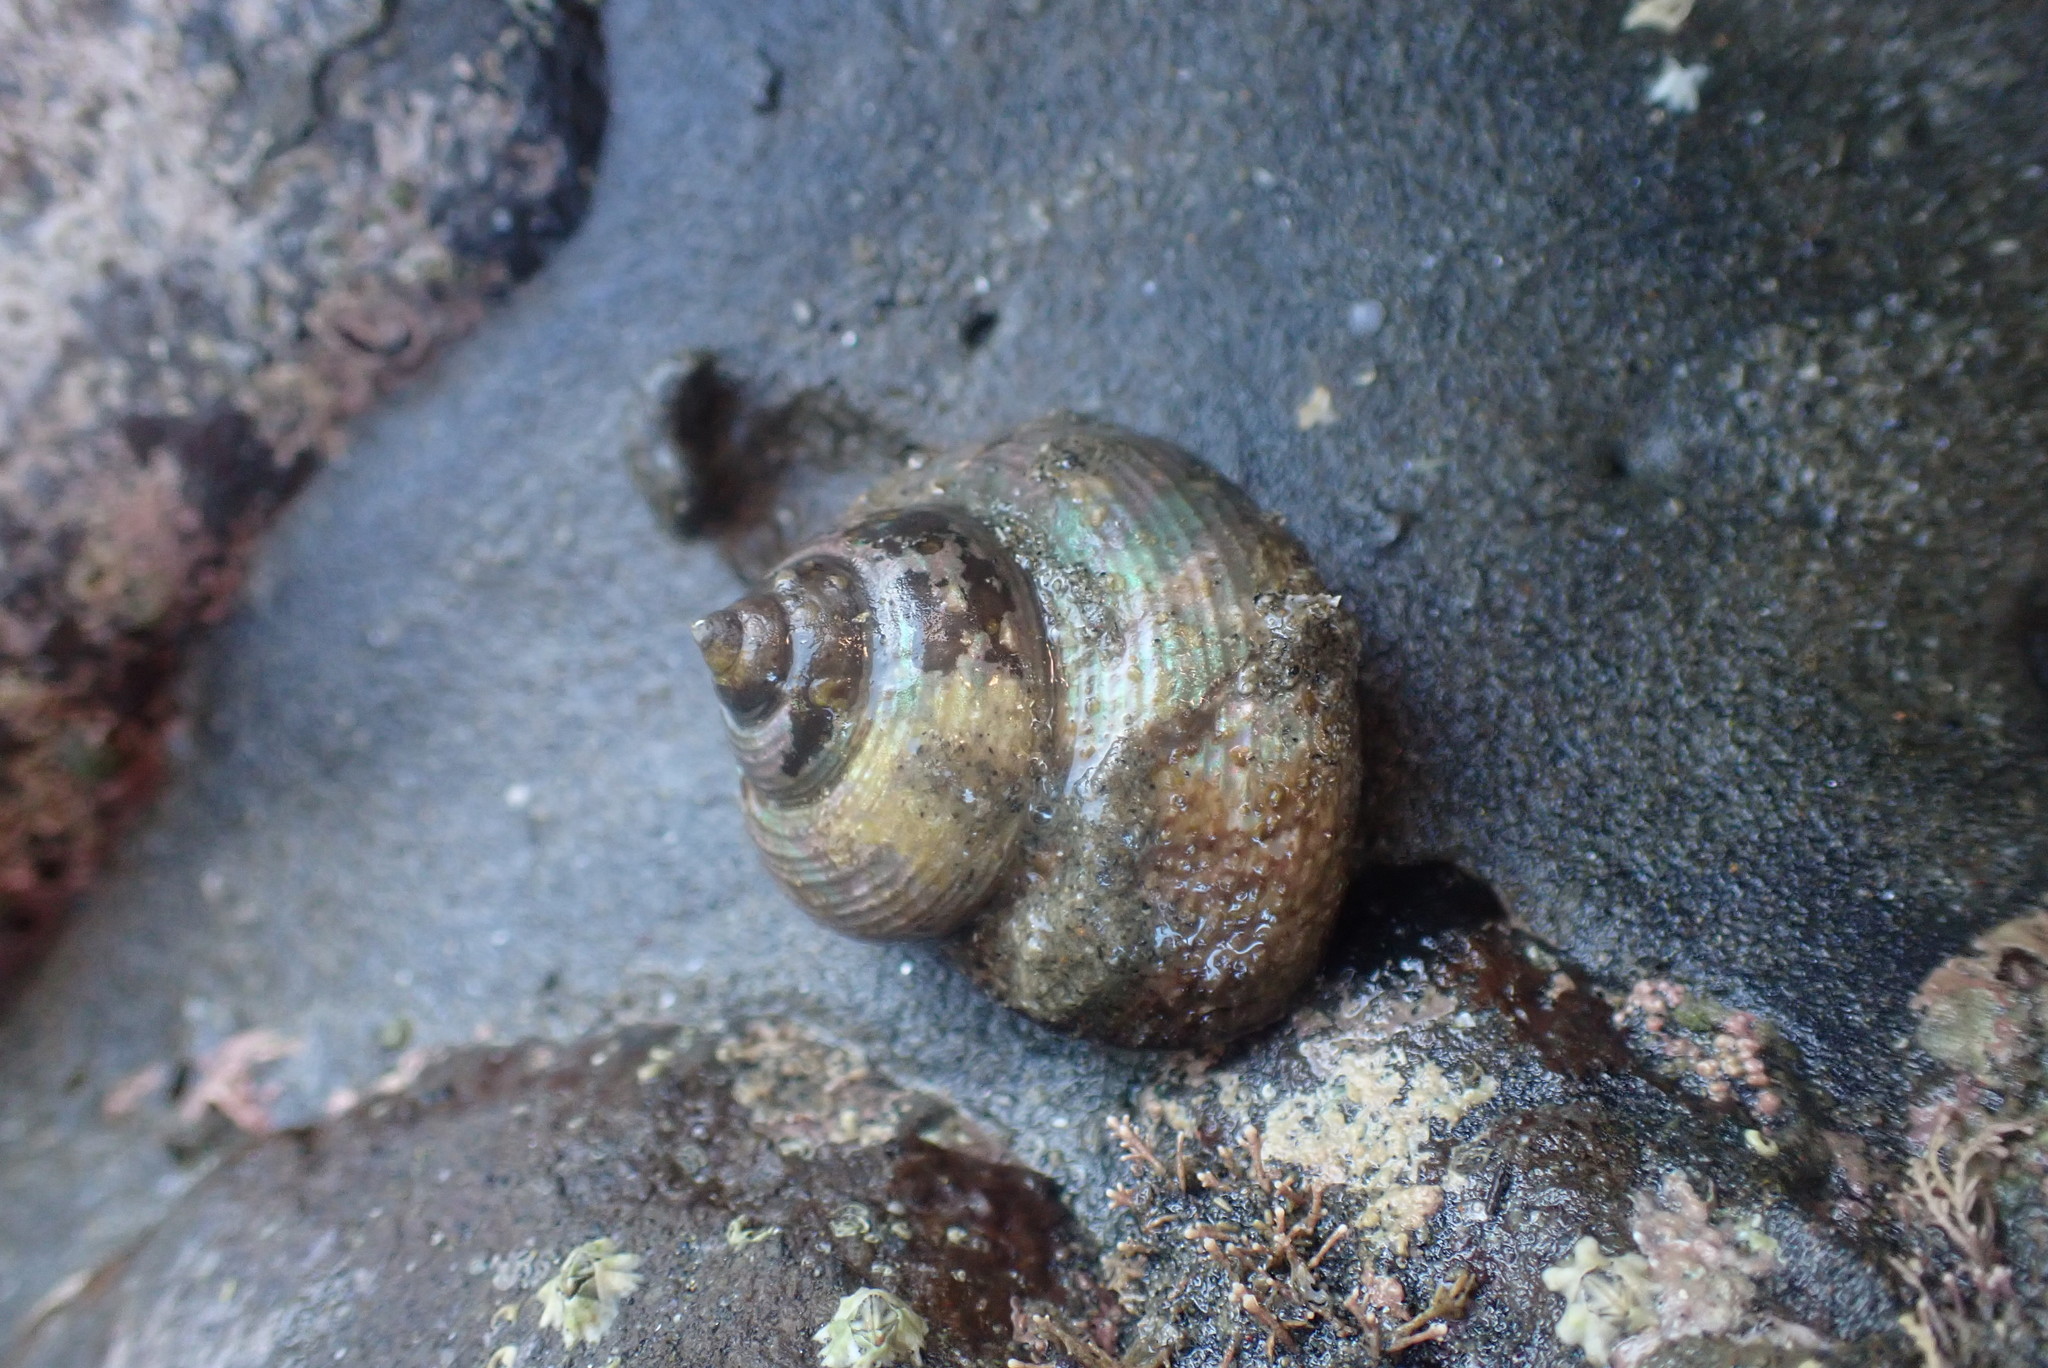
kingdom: Animalia
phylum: Mollusca
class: Gastropoda
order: Trochida
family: Calliostomatidae
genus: Maurea
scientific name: Maurea punctulata
